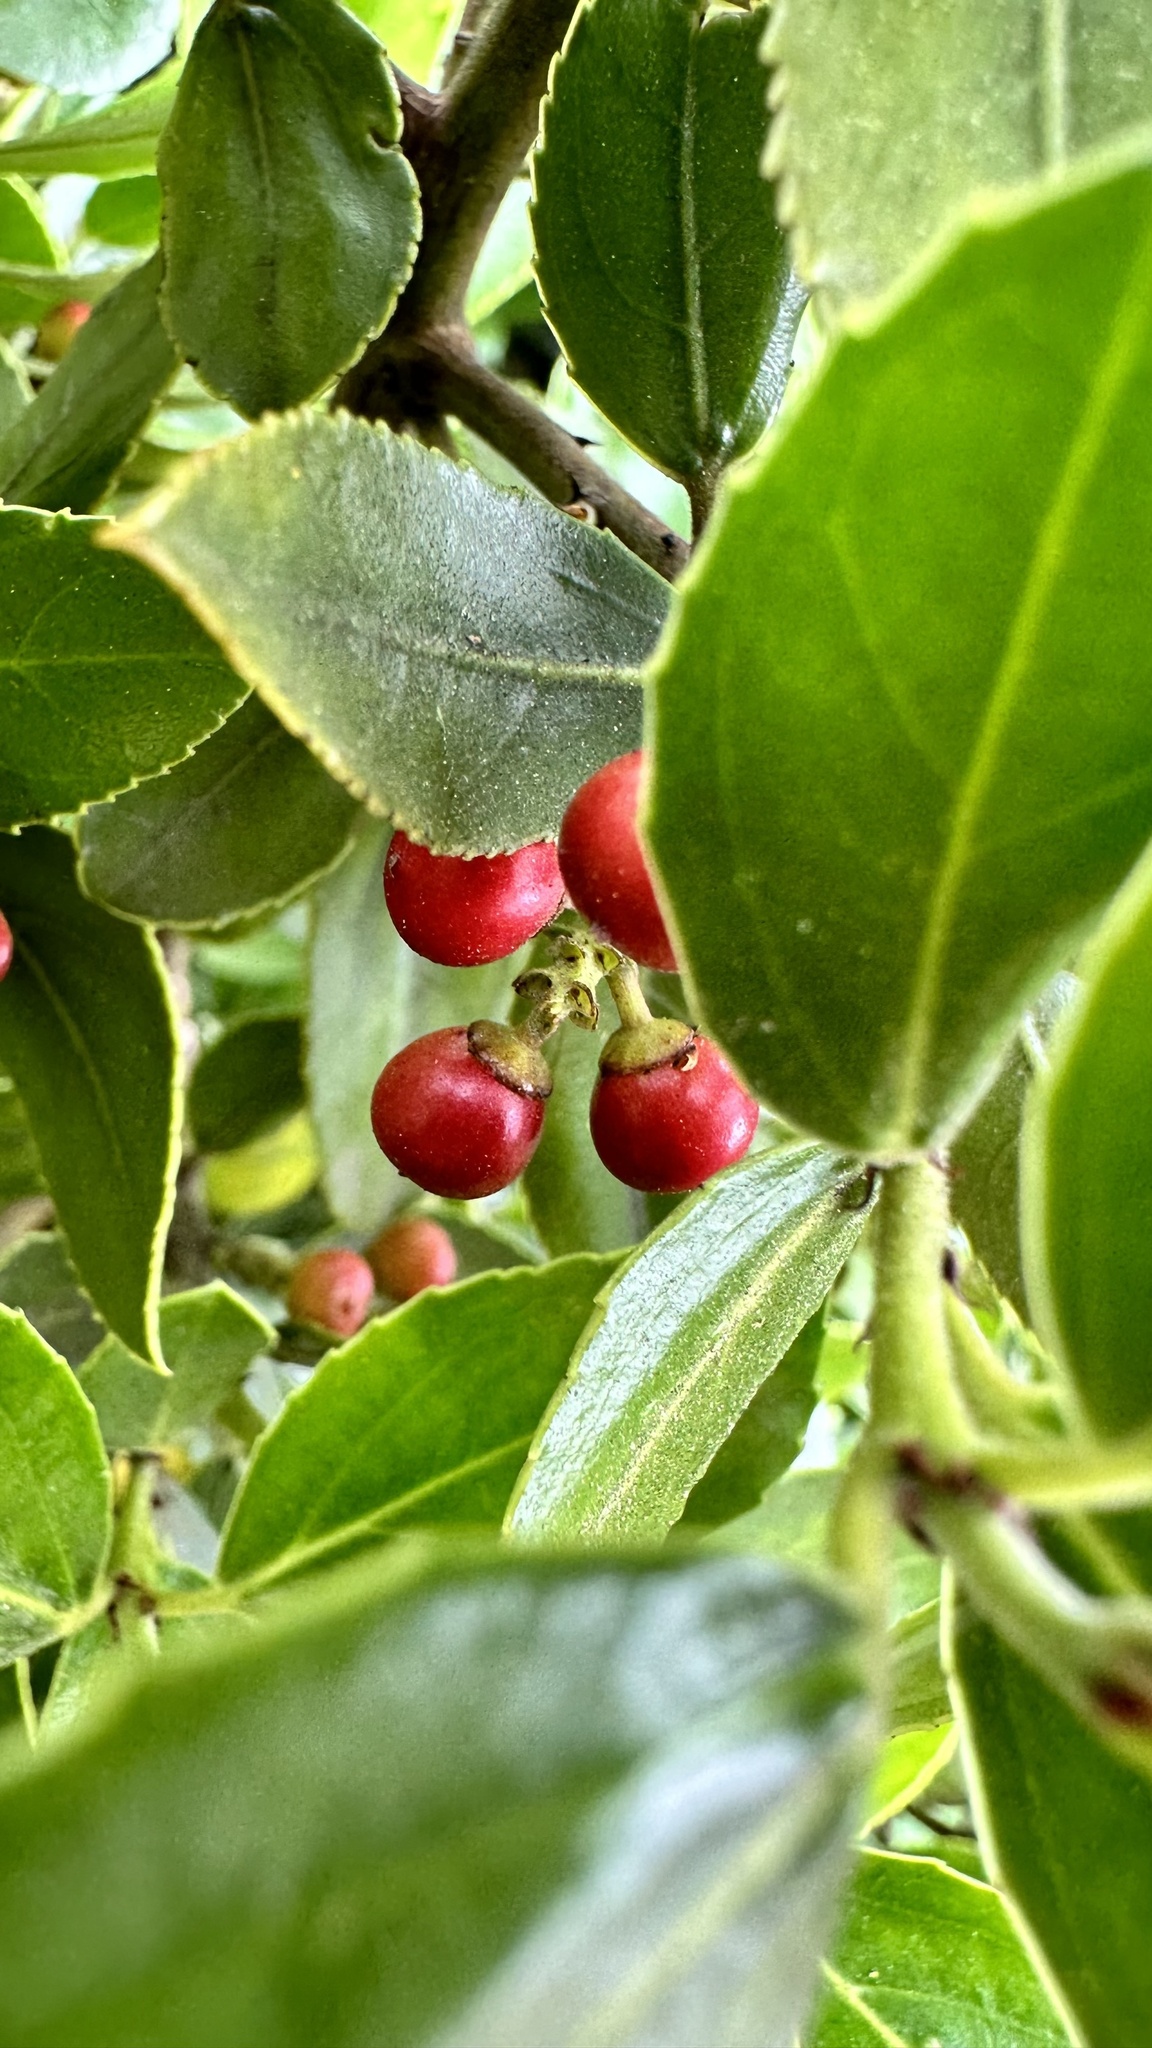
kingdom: Plantae
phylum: Tracheophyta
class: Magnoliopsida
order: Rosales
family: Rhamnaceae
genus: Rhamnus
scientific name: Rhamnus alaternus
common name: Mediterranean buckthorn
